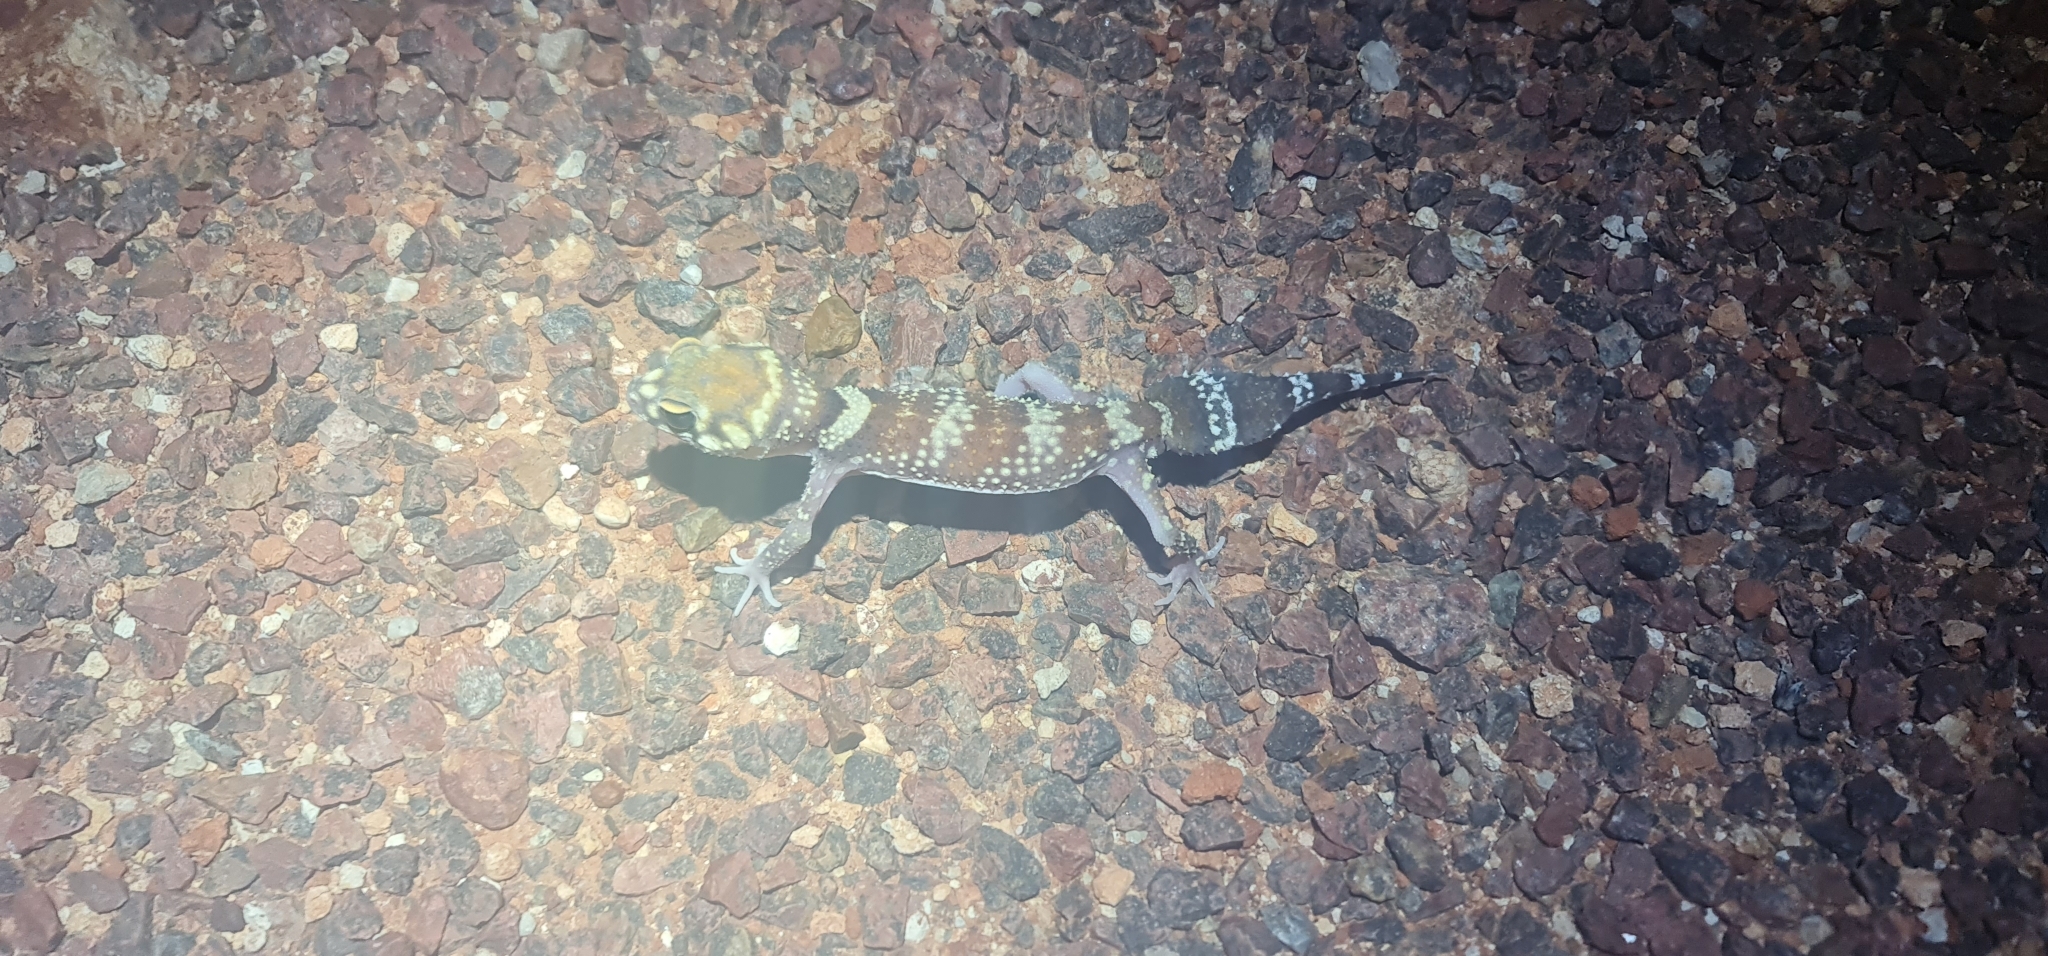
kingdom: Animalia
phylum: Chordata
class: Squamata
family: Carphodactylidae
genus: Underwoodisaurus
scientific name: Underwoodisaurus milii
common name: Barking gecko
